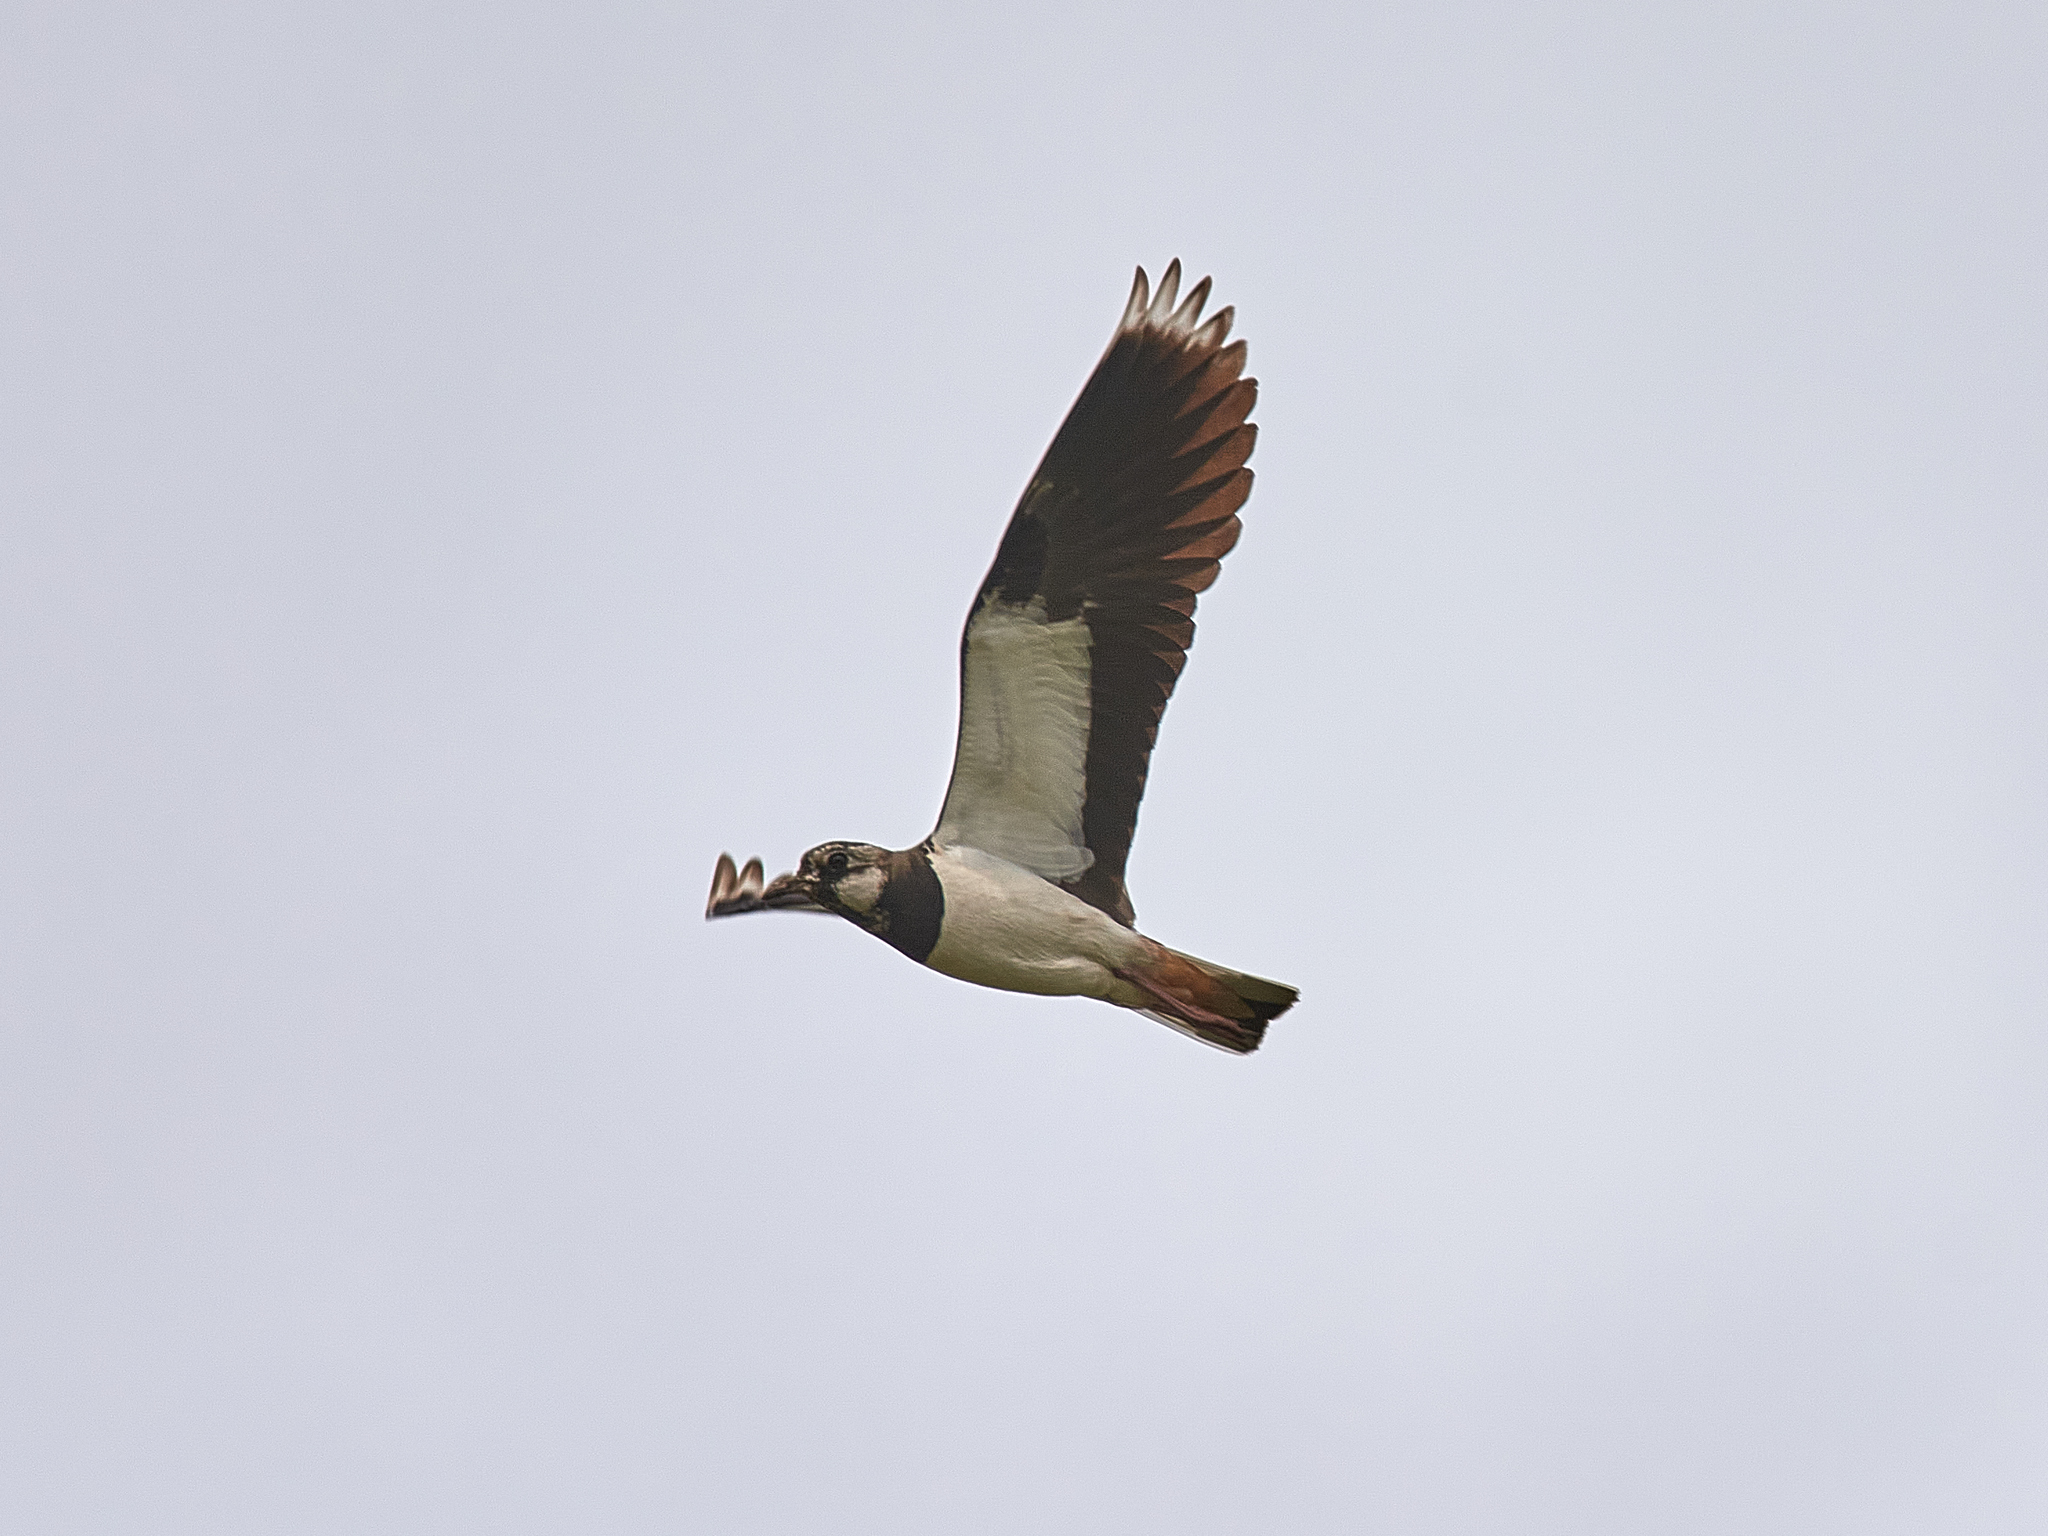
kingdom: Animalia
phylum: Chordata
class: Aves
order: Charadriiformes
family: Charadriidae
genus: Vanellus
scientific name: Vanellus vanellus
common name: Northern lapwing
